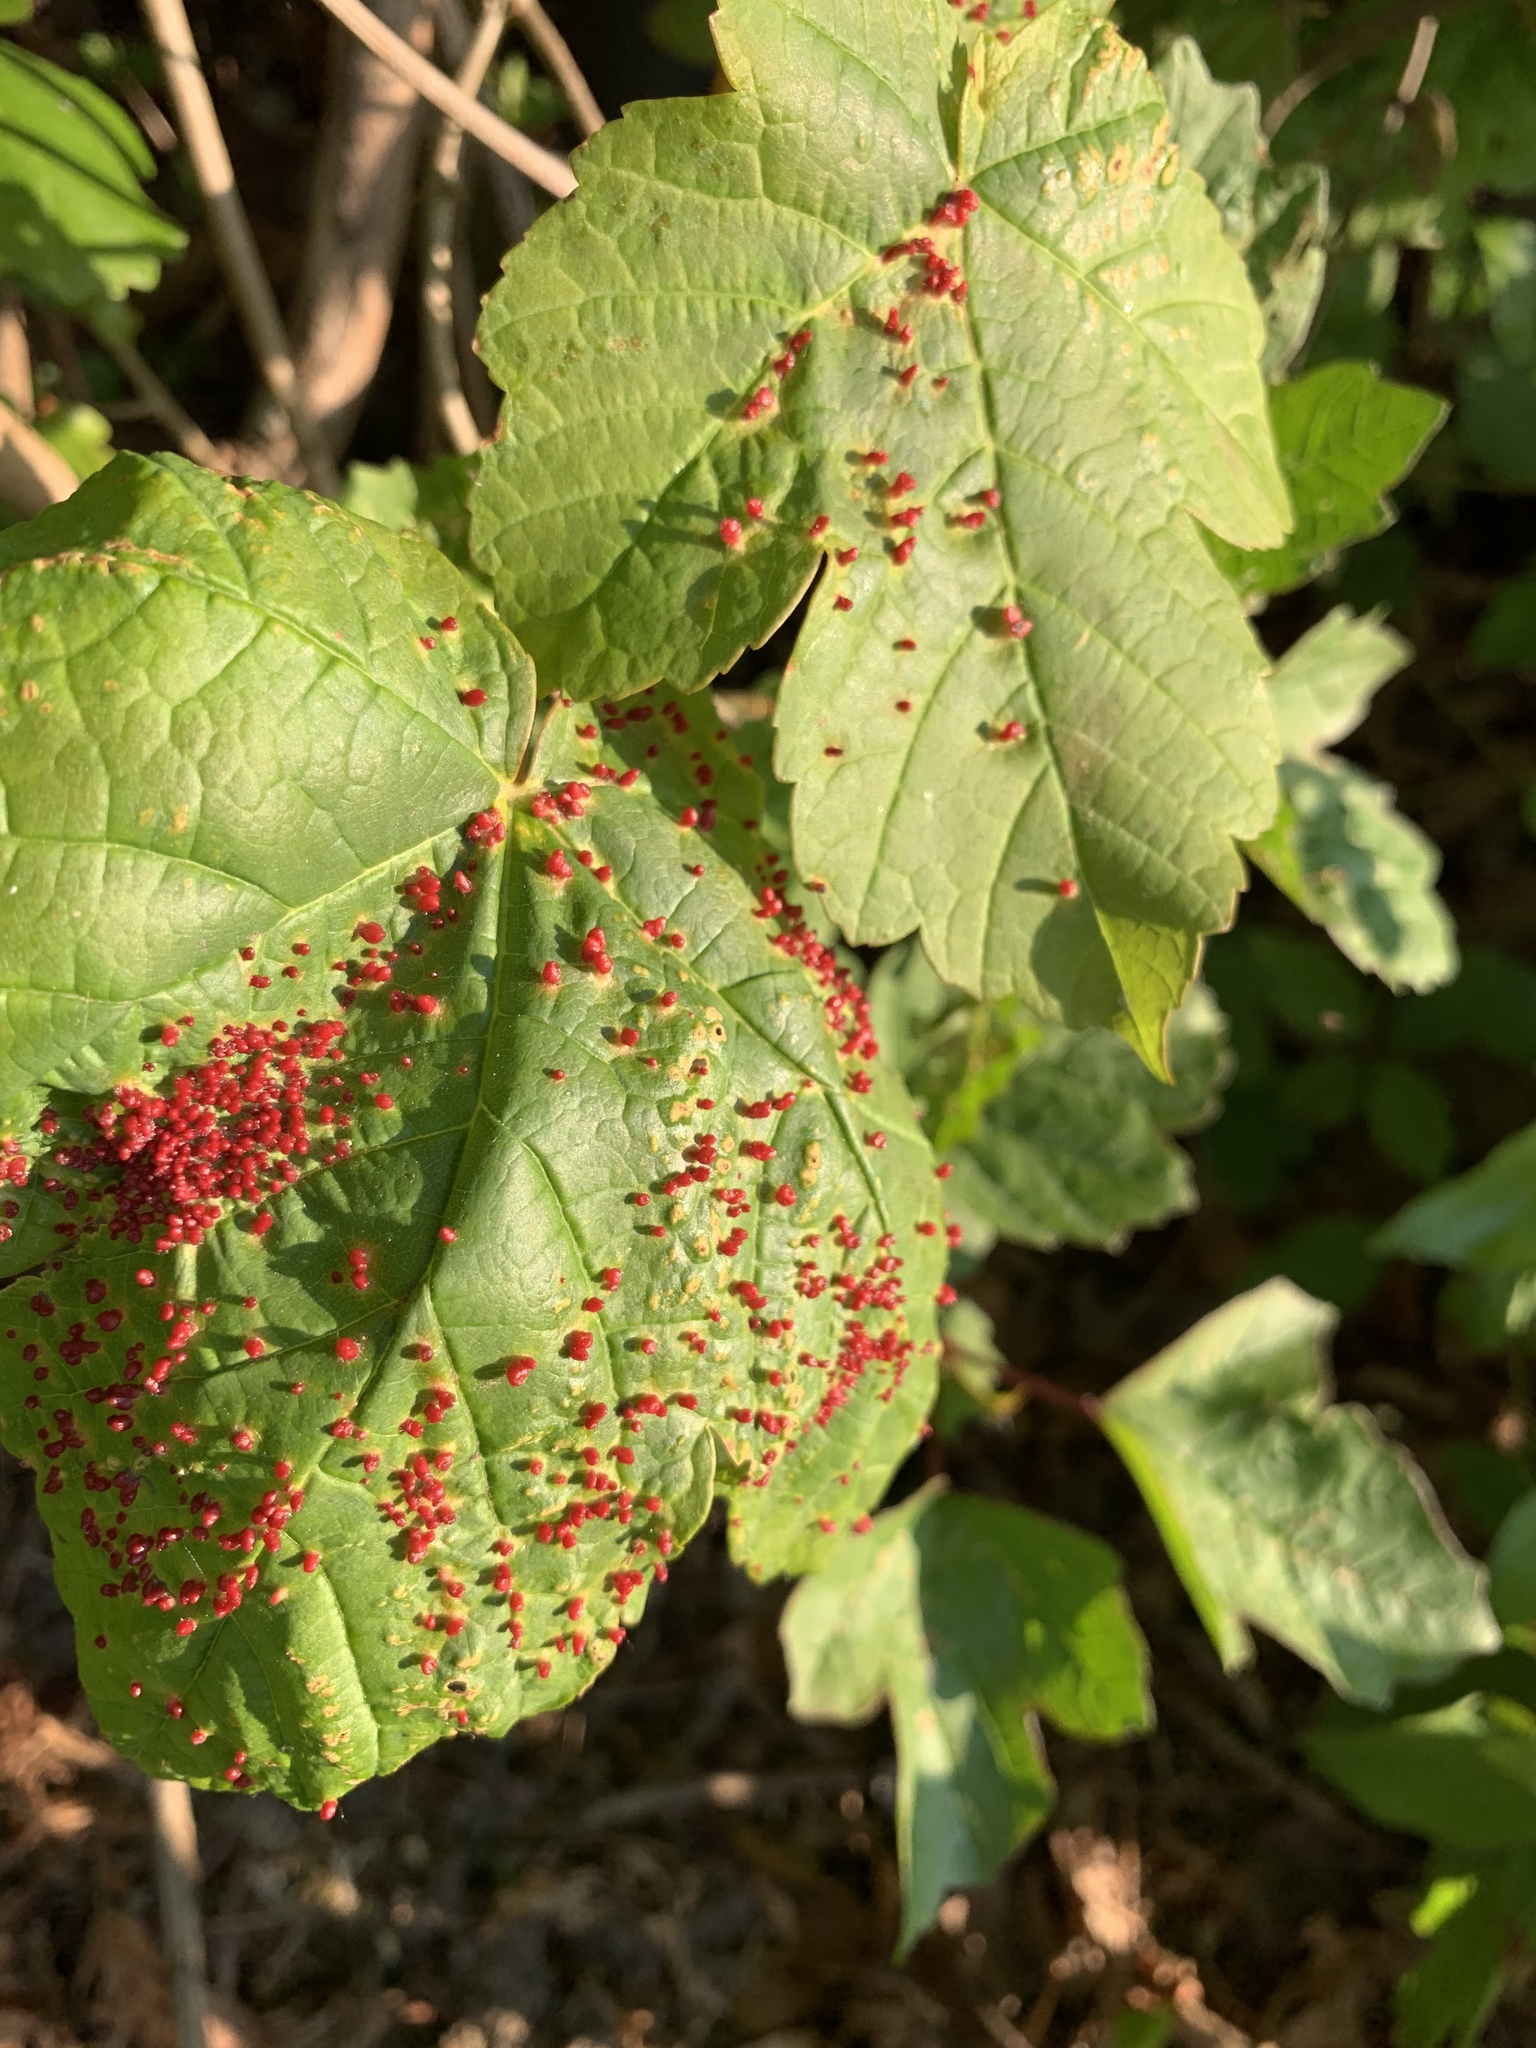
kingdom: Animalia
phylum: Arthropoda
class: Arachnida
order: Trombidiformes
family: Eriophyidae
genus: Aceria
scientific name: Aceria cephaloneus
